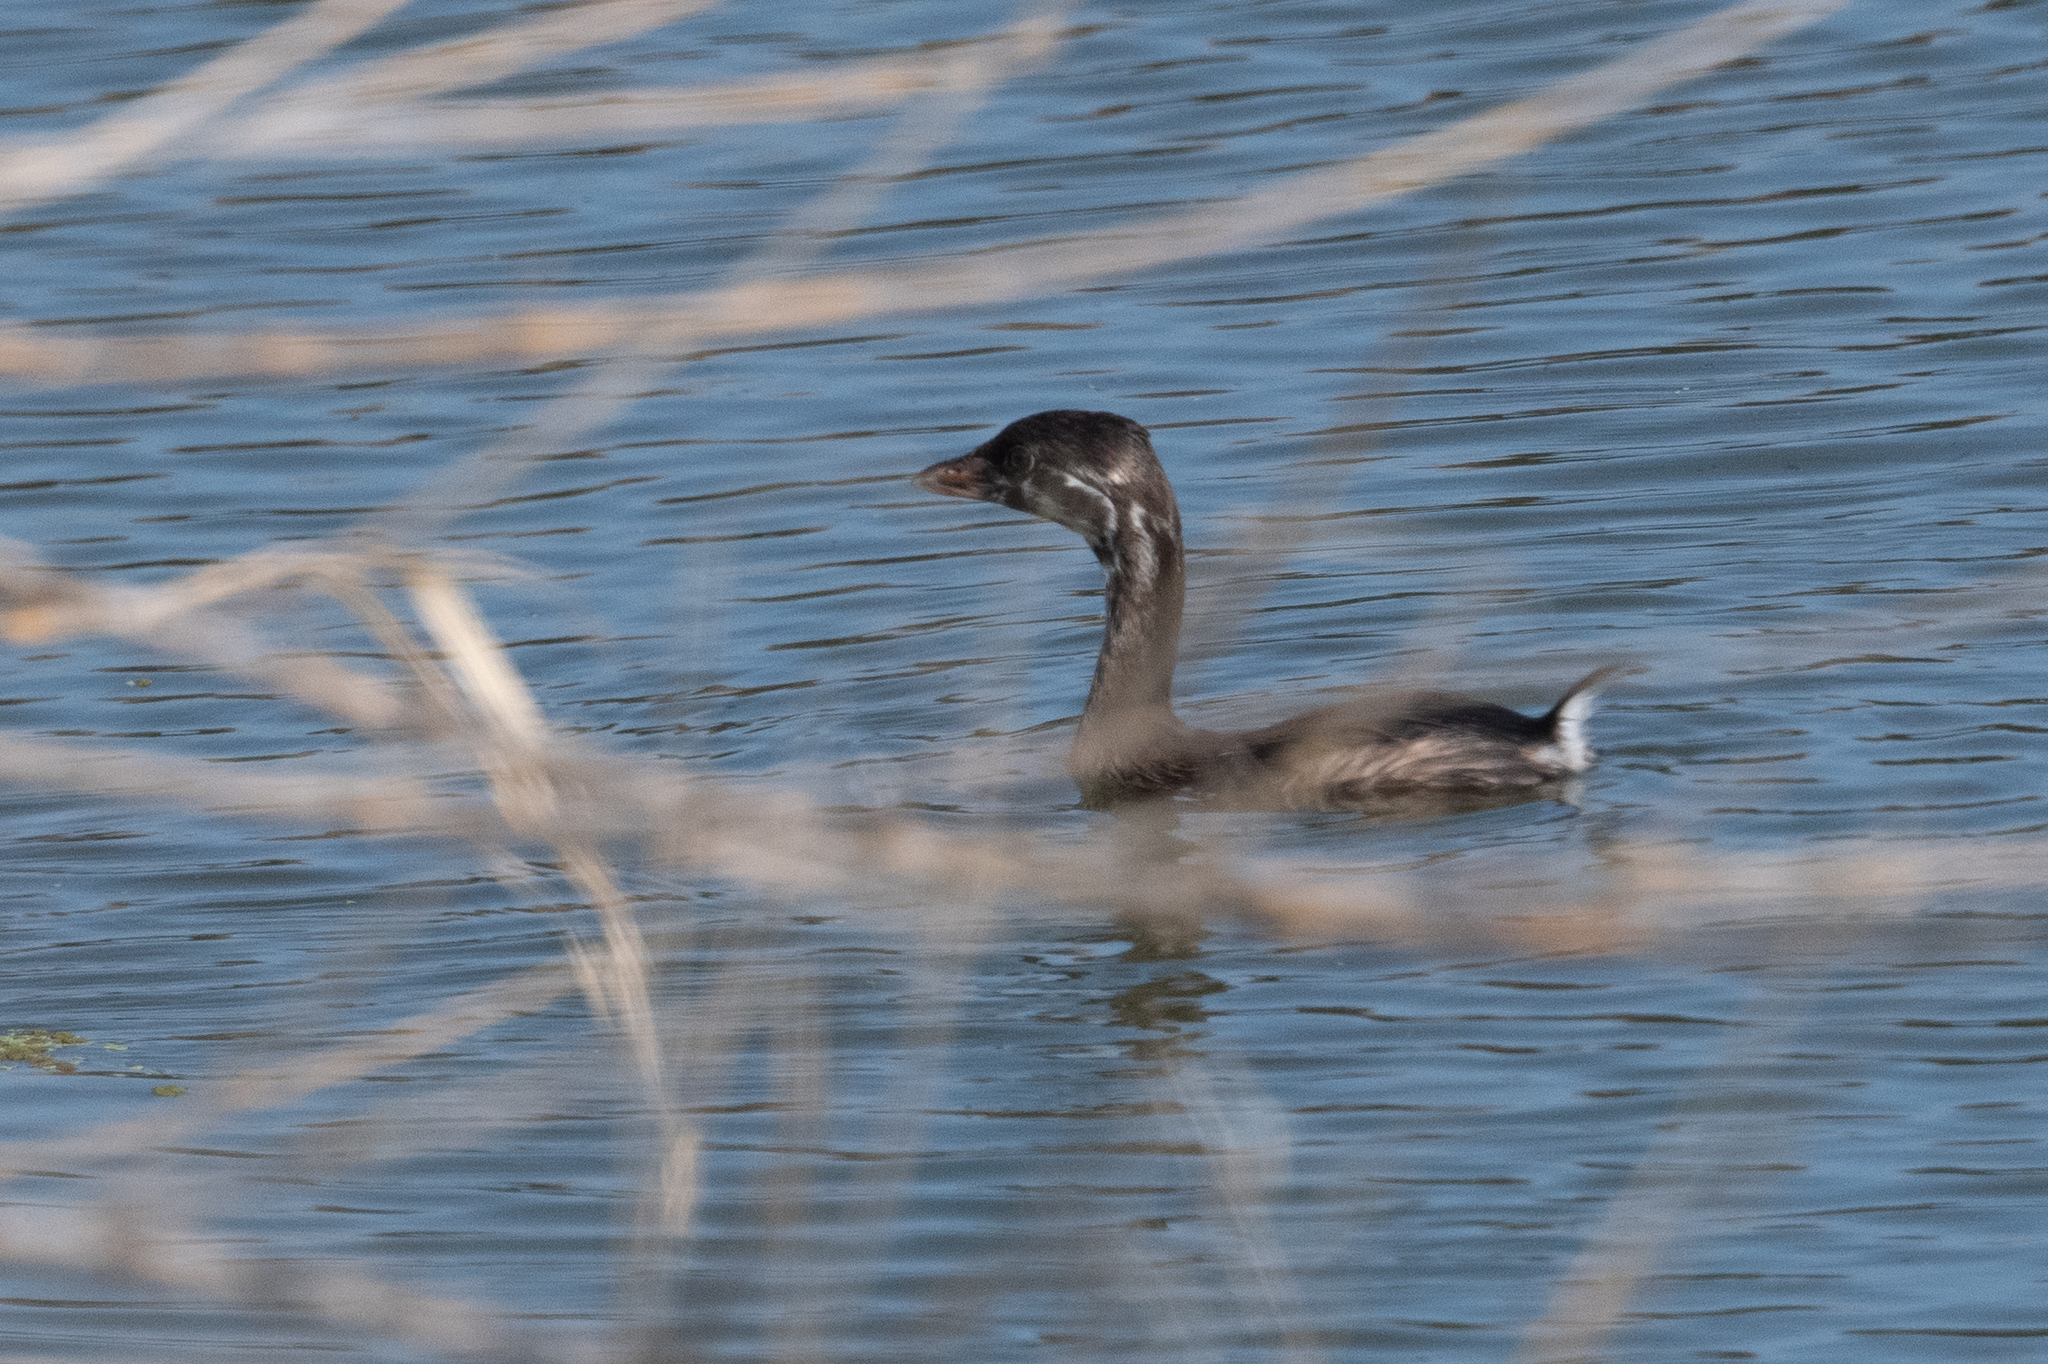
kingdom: Animalia
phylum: Chordata
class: Aves
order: Podicipediformes
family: Podicipedidae
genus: Podilymbus
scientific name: Podilymbus podiceps
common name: Pied-billed grebe
